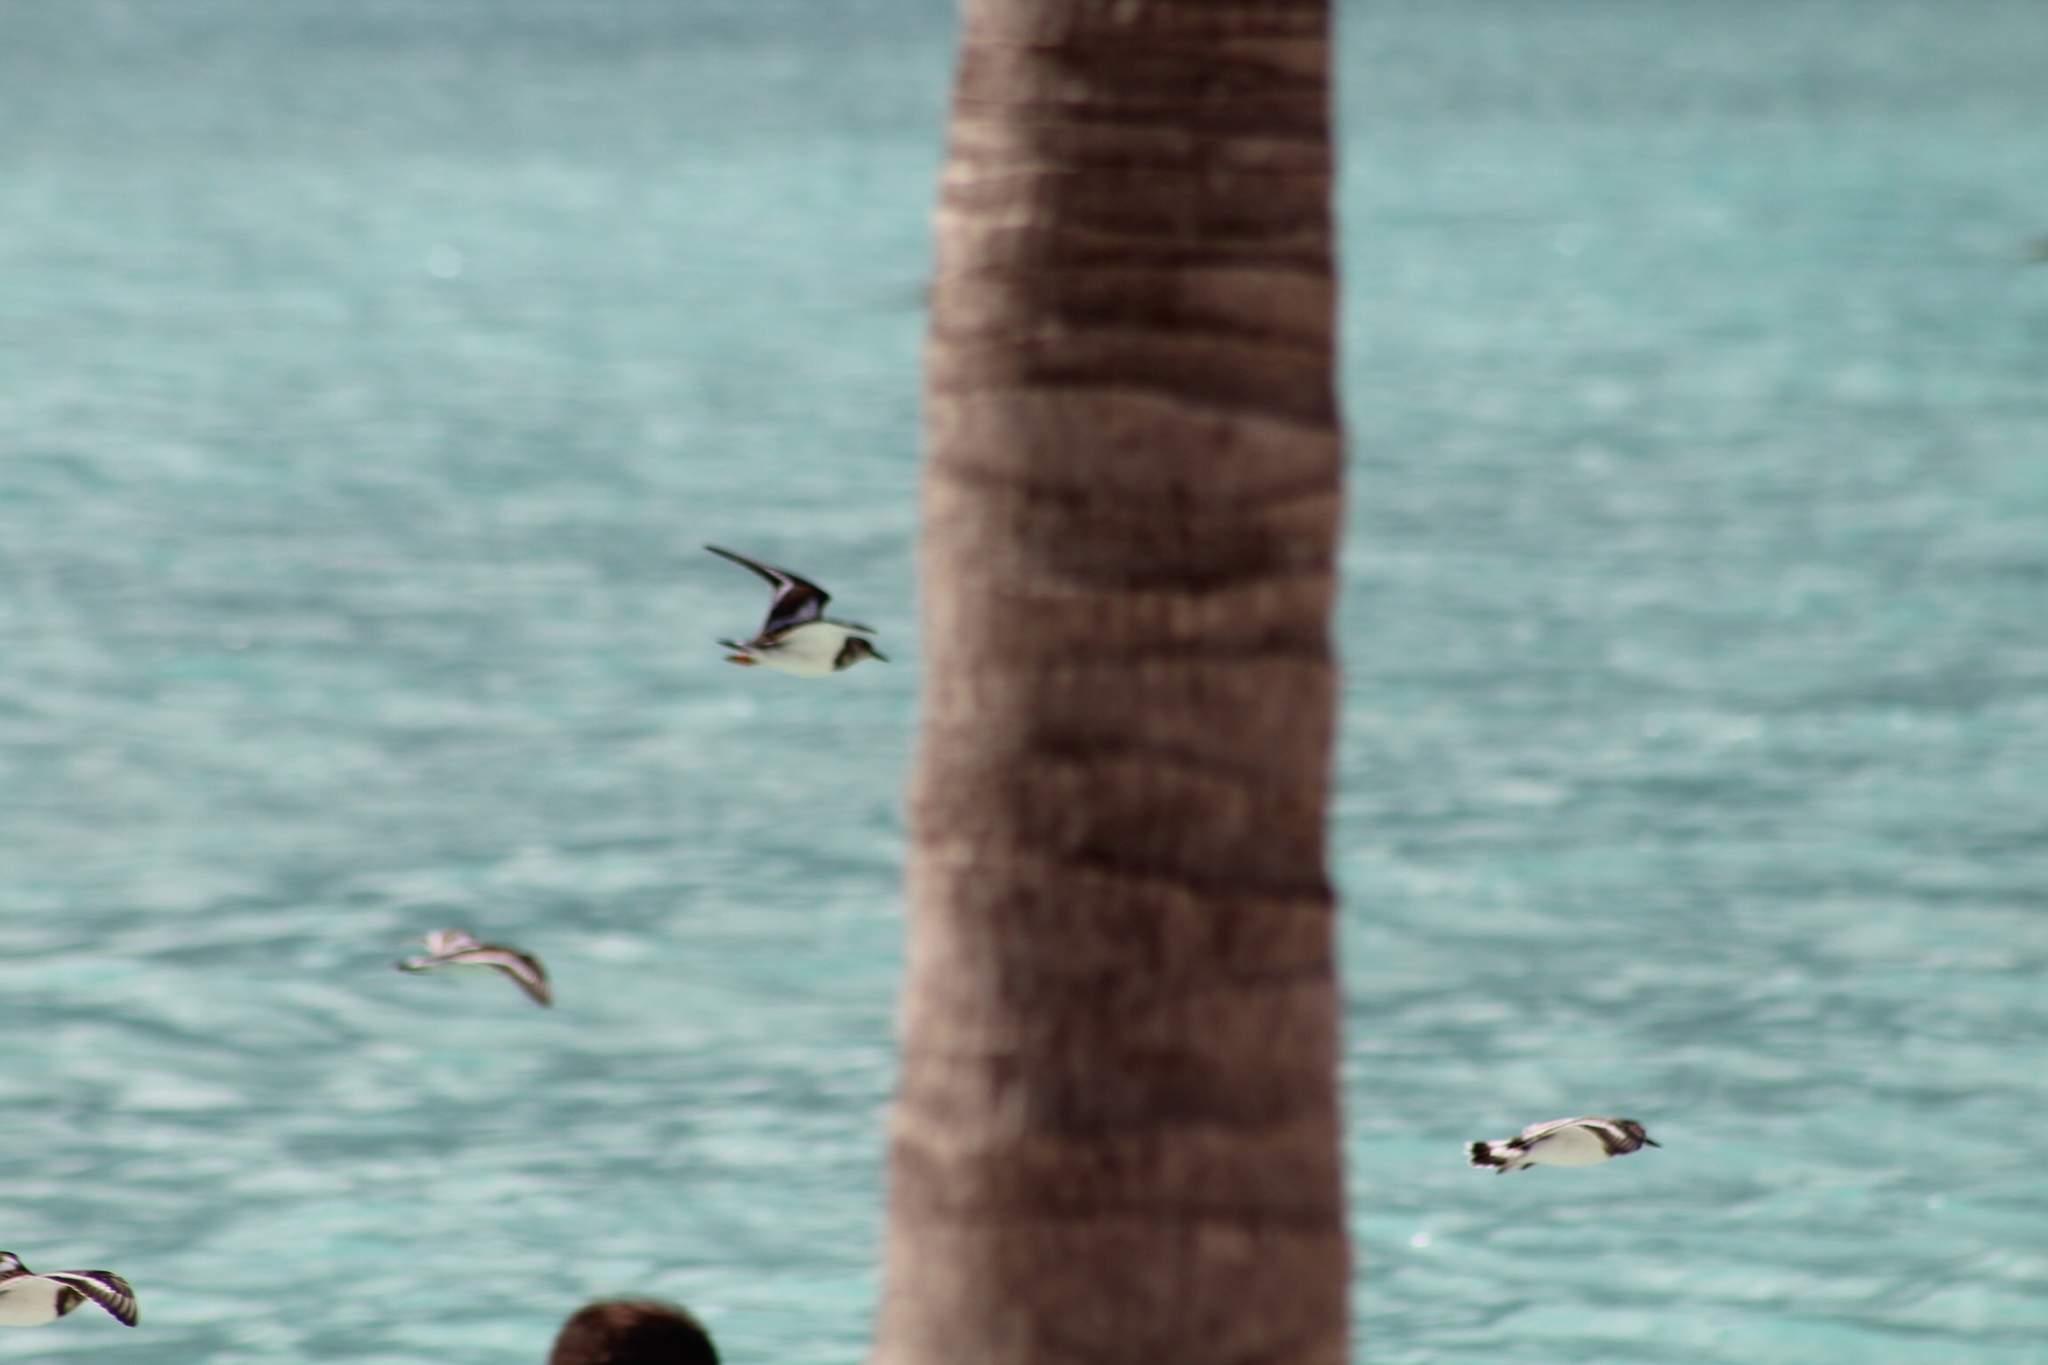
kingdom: Animalia
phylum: Chordata
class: Aves
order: Charadriiformes
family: Scolopacidae
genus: Arenaria
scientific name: Arenaria interpres
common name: Ruddy turnstone
